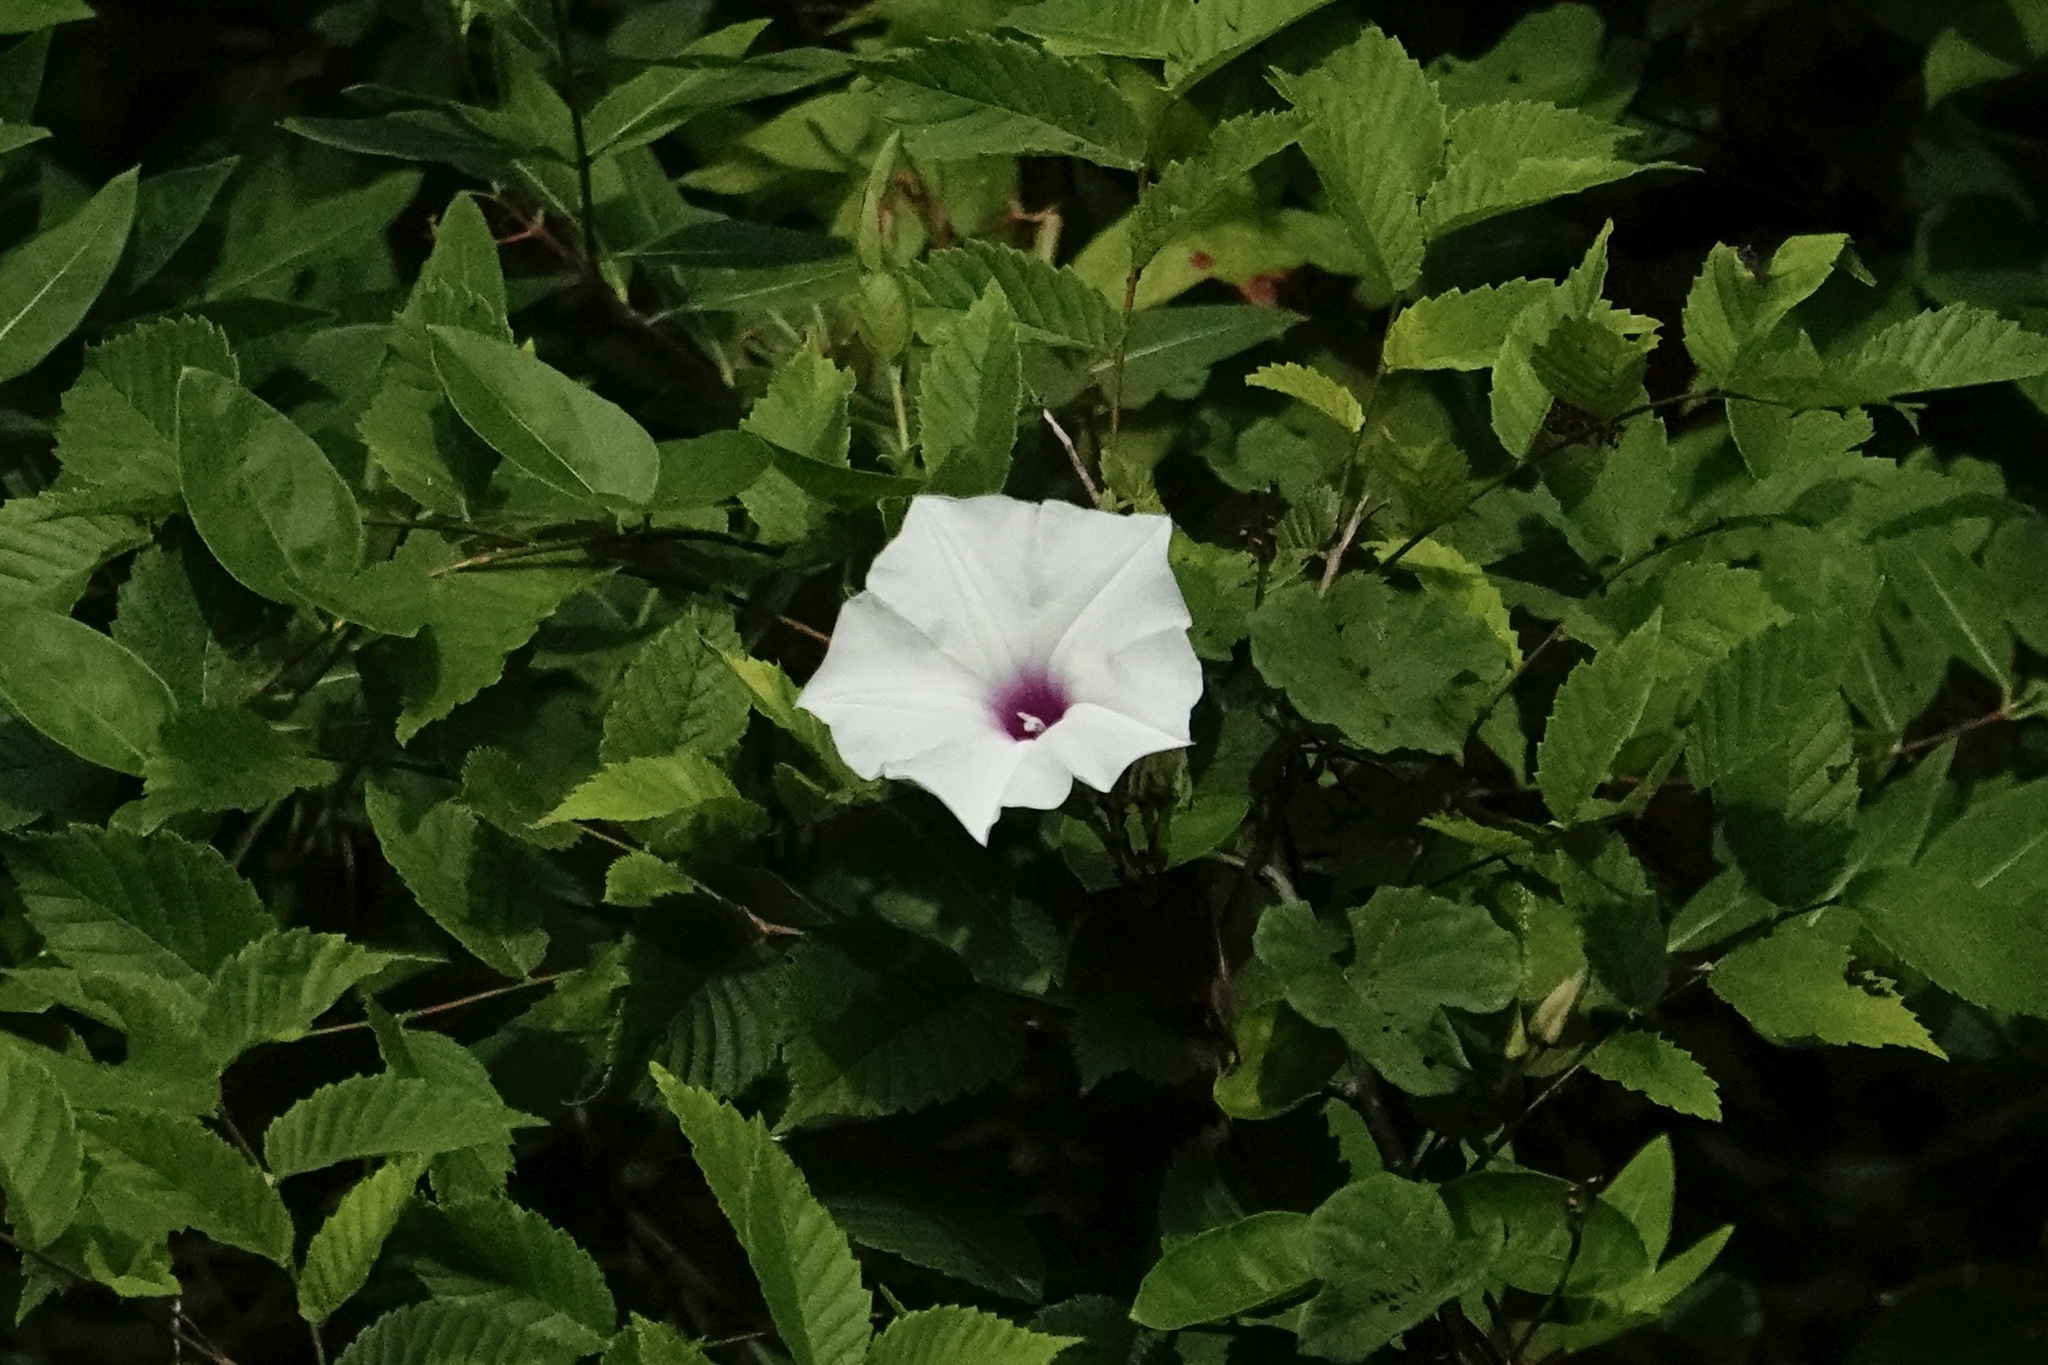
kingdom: Plantae
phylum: Tracheophyta
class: Magnoliopsida
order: Solanales
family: Convolvulaceae
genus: Ipomoea
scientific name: Ipomoea pandurata
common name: Man-of-the-earth
